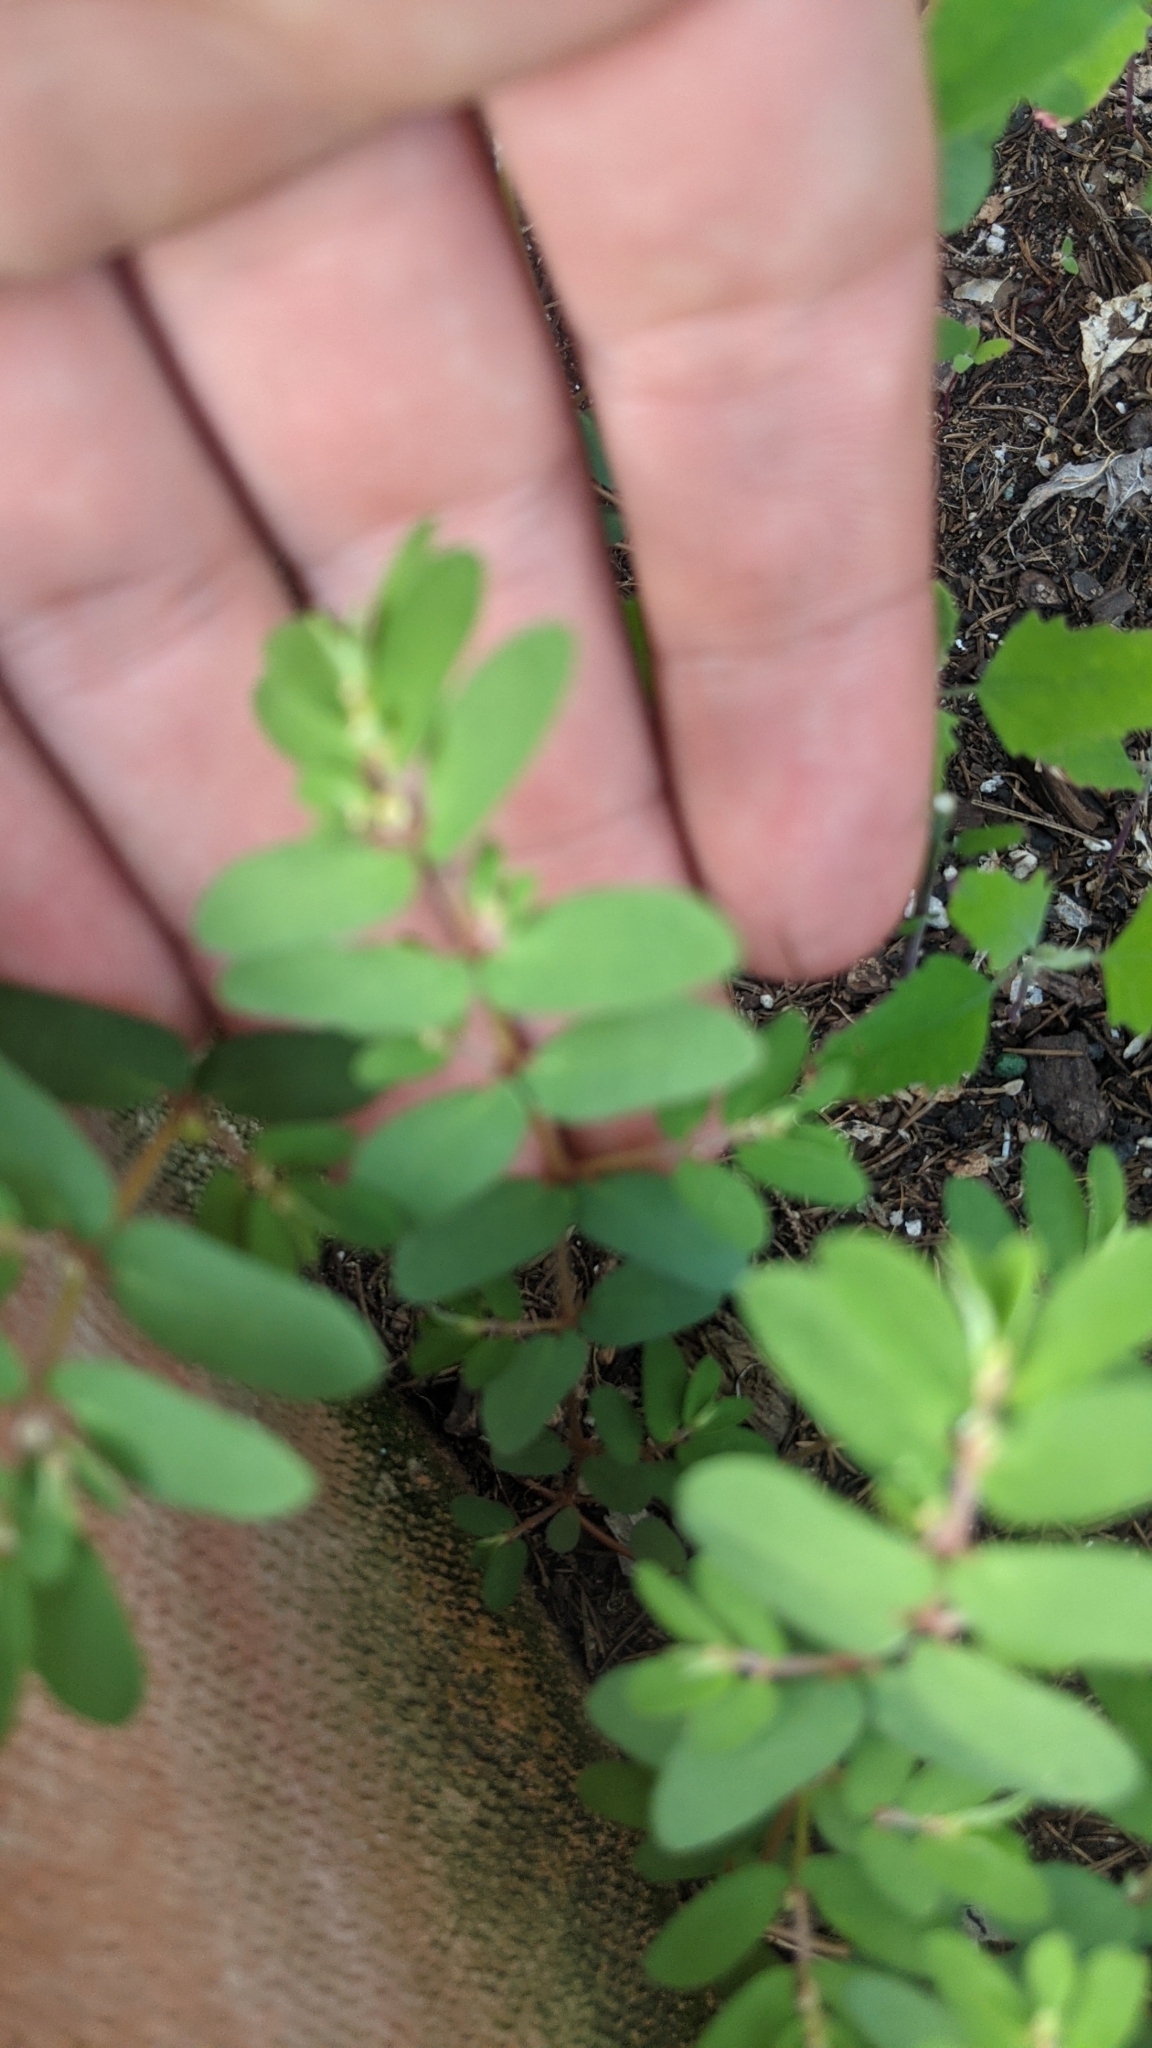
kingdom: Plantae
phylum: Tracheophyta
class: Magnoliopsida
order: Malpighiales
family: Euphorbiaceae
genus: Euphorbia
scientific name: Euphorbia maculata
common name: Spotted spurge
